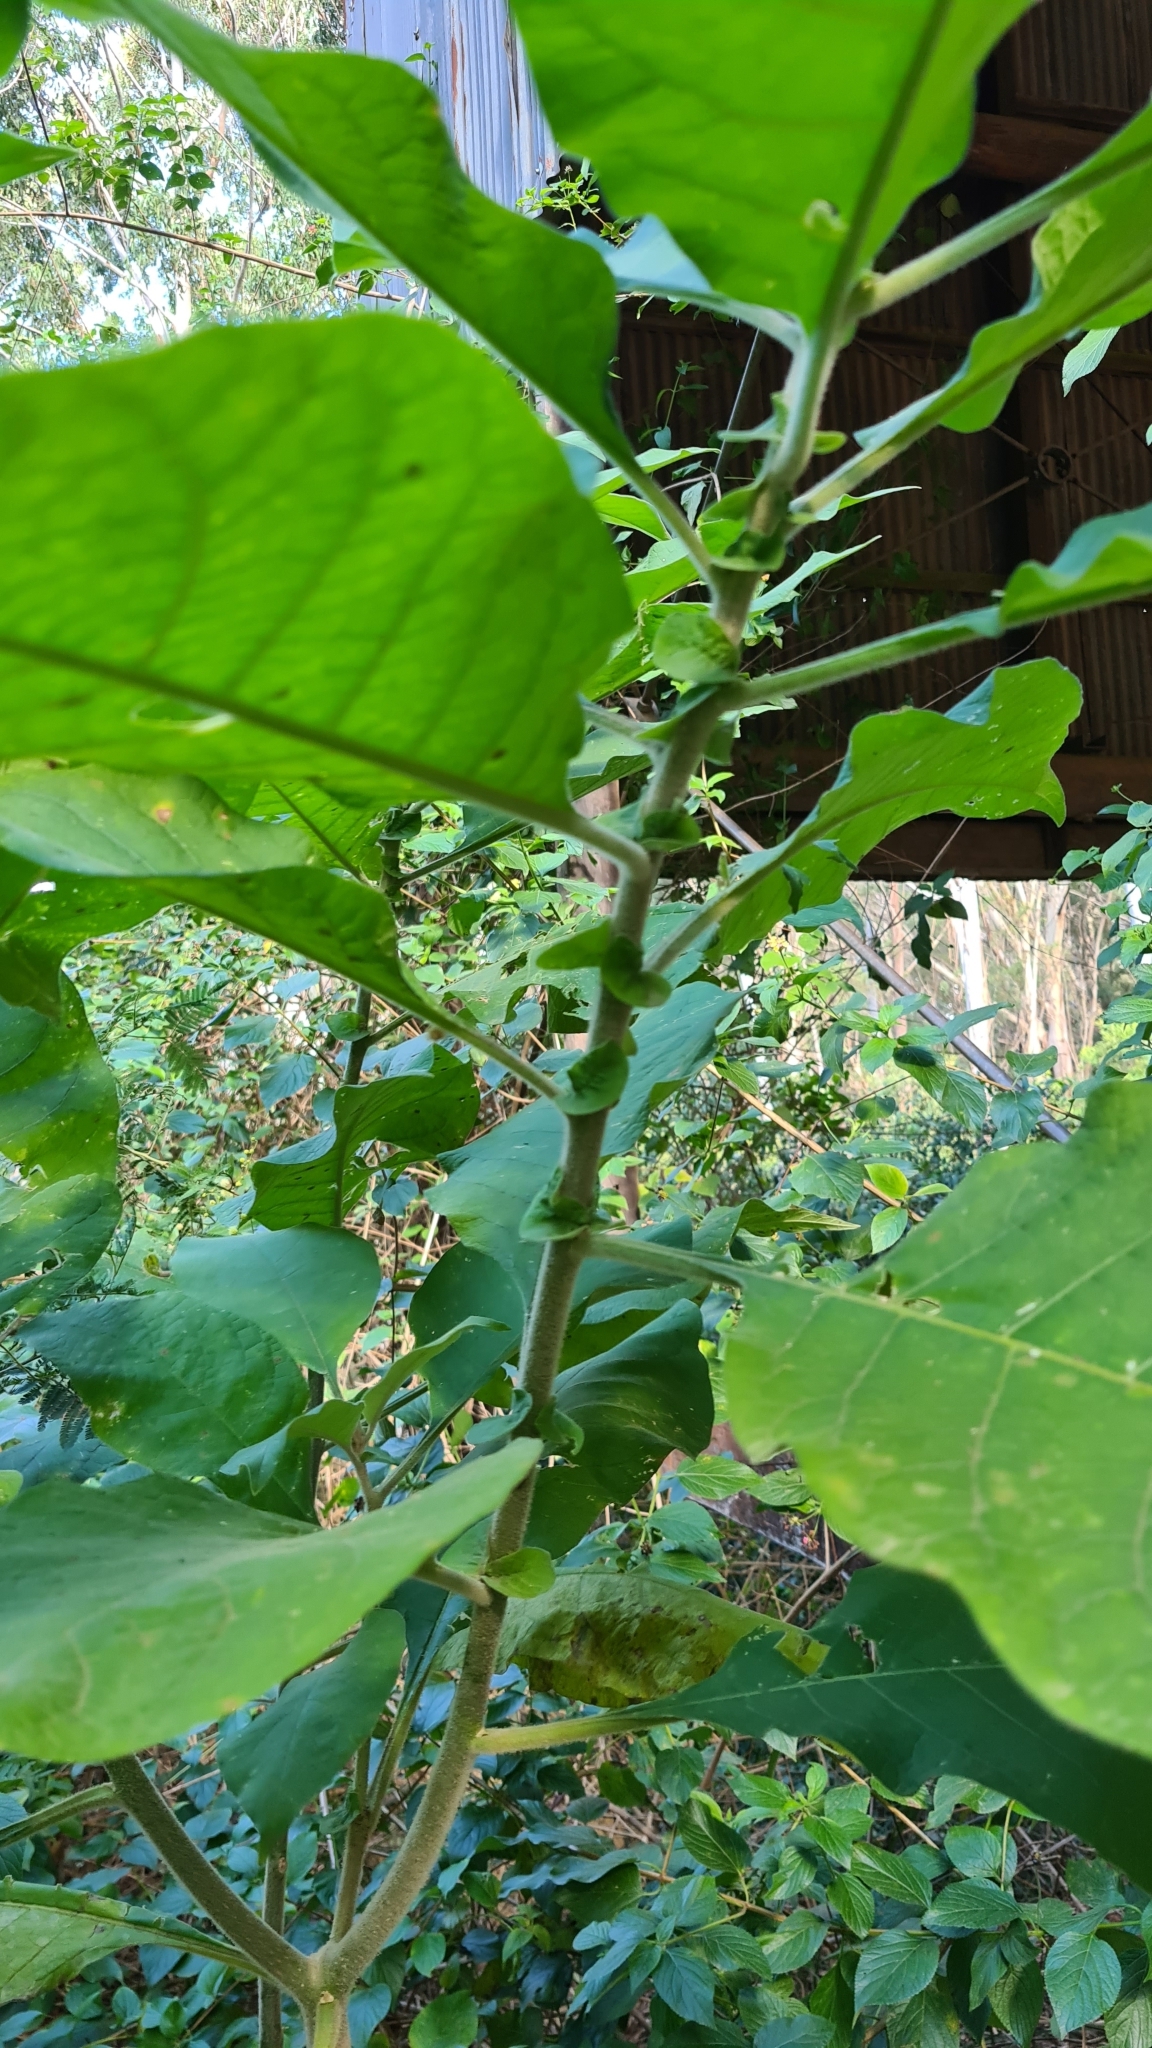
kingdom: Plantae
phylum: Tracheophyta
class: Magnoliopsida
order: Solanales
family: Solanaceae
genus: Solanum
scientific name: Solanum mauritianum
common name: Earleaf nightshade
